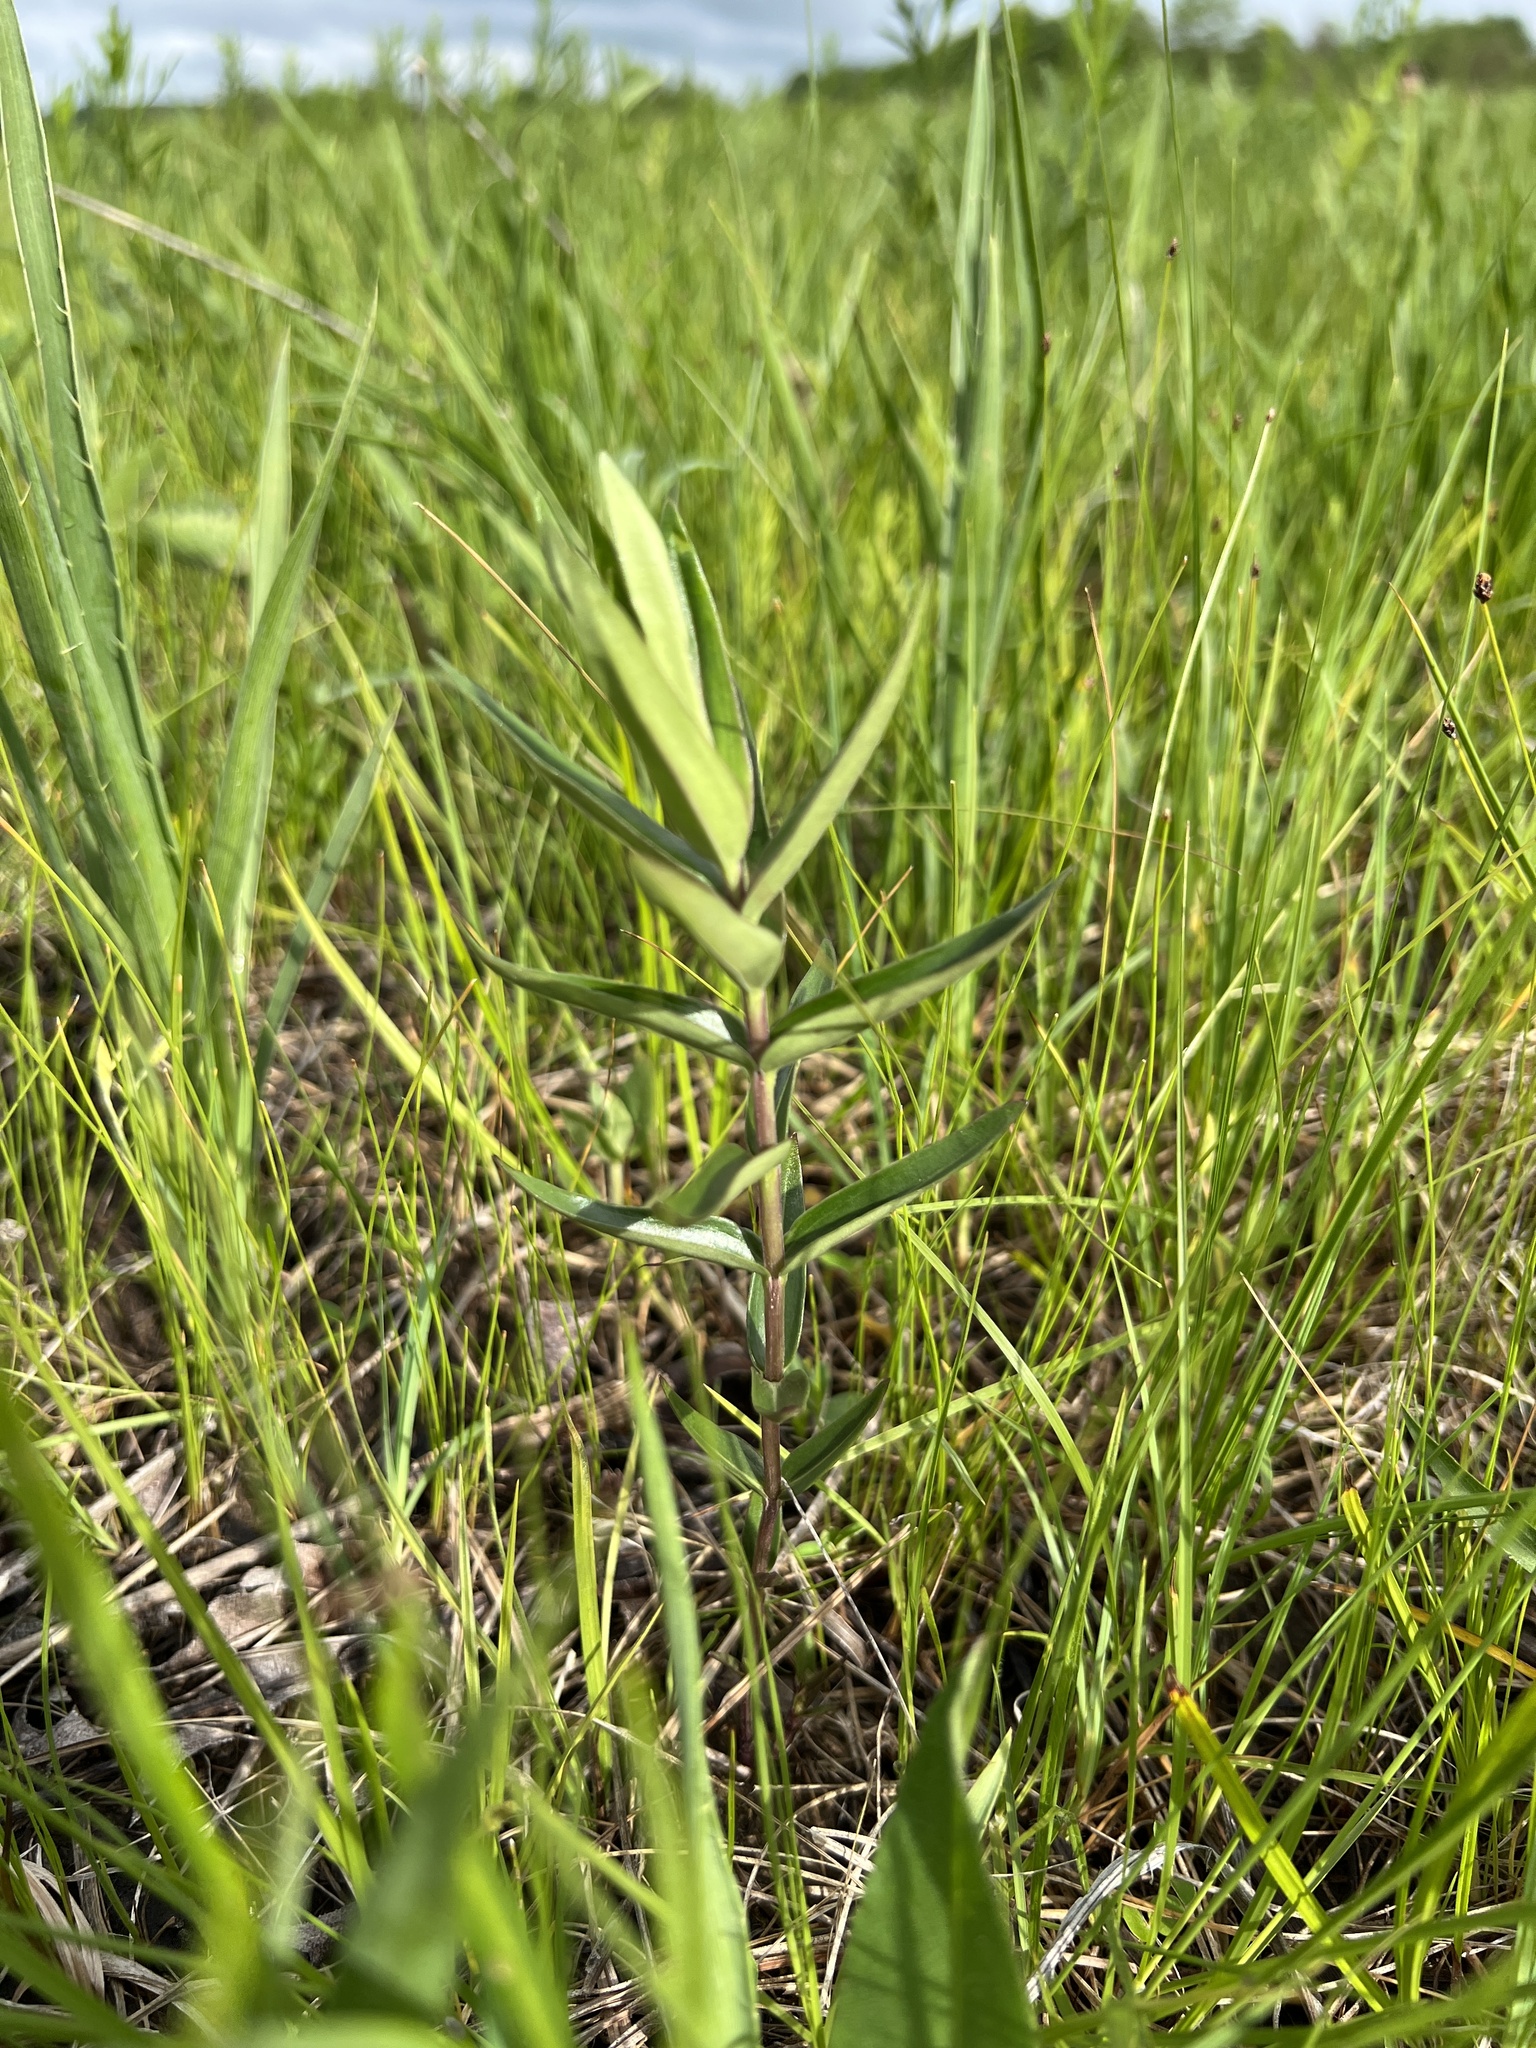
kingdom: Plantae
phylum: Tracheophyta
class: Magnoliopsida
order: Gentianales
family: Gentianaceae
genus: Gentiana
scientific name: Gentiana puberulenta
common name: Downy gentian
